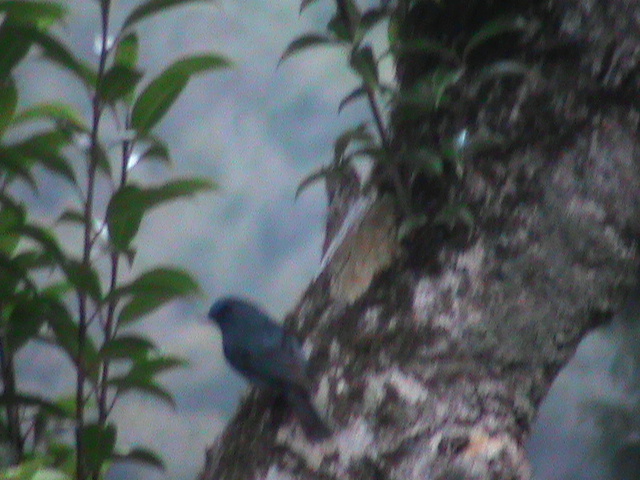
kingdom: Animalia
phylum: Chordata
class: Aves
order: Passeriformes
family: Muscicapidae
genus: Eumyias
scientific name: Eumyias albicaudatus
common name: Nilgiri flycatcher
